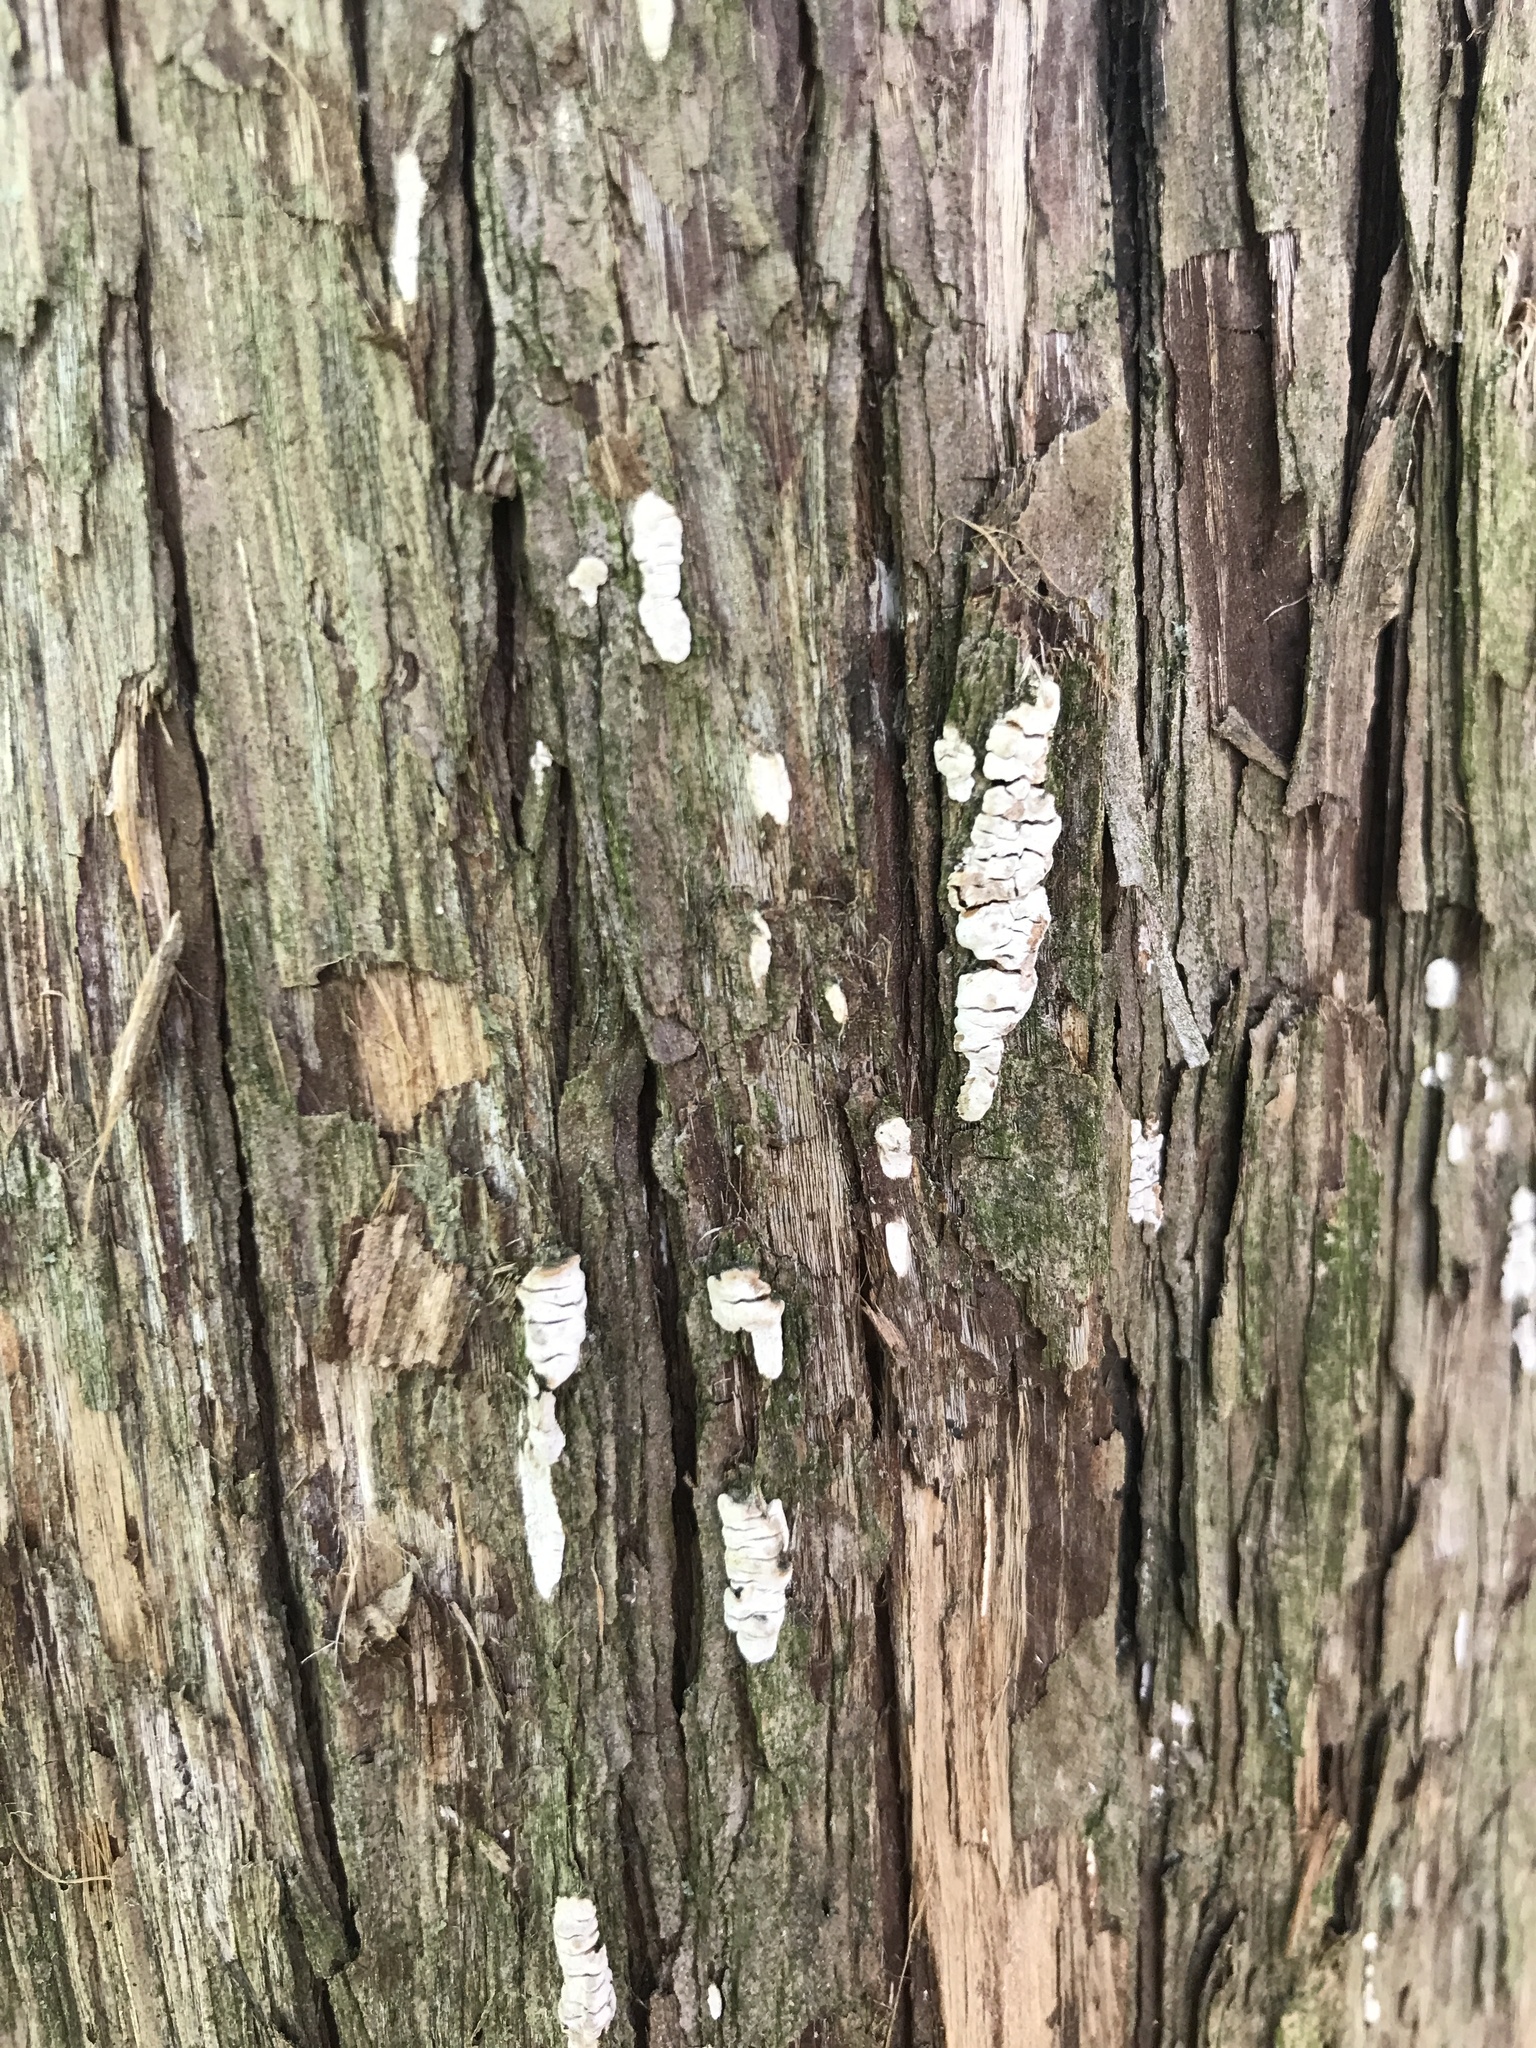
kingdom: Fungi
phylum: Basidiomycota
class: Agaricomycetes
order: Agaricales
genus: Dendrothele
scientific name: Dendrothele nivosa
